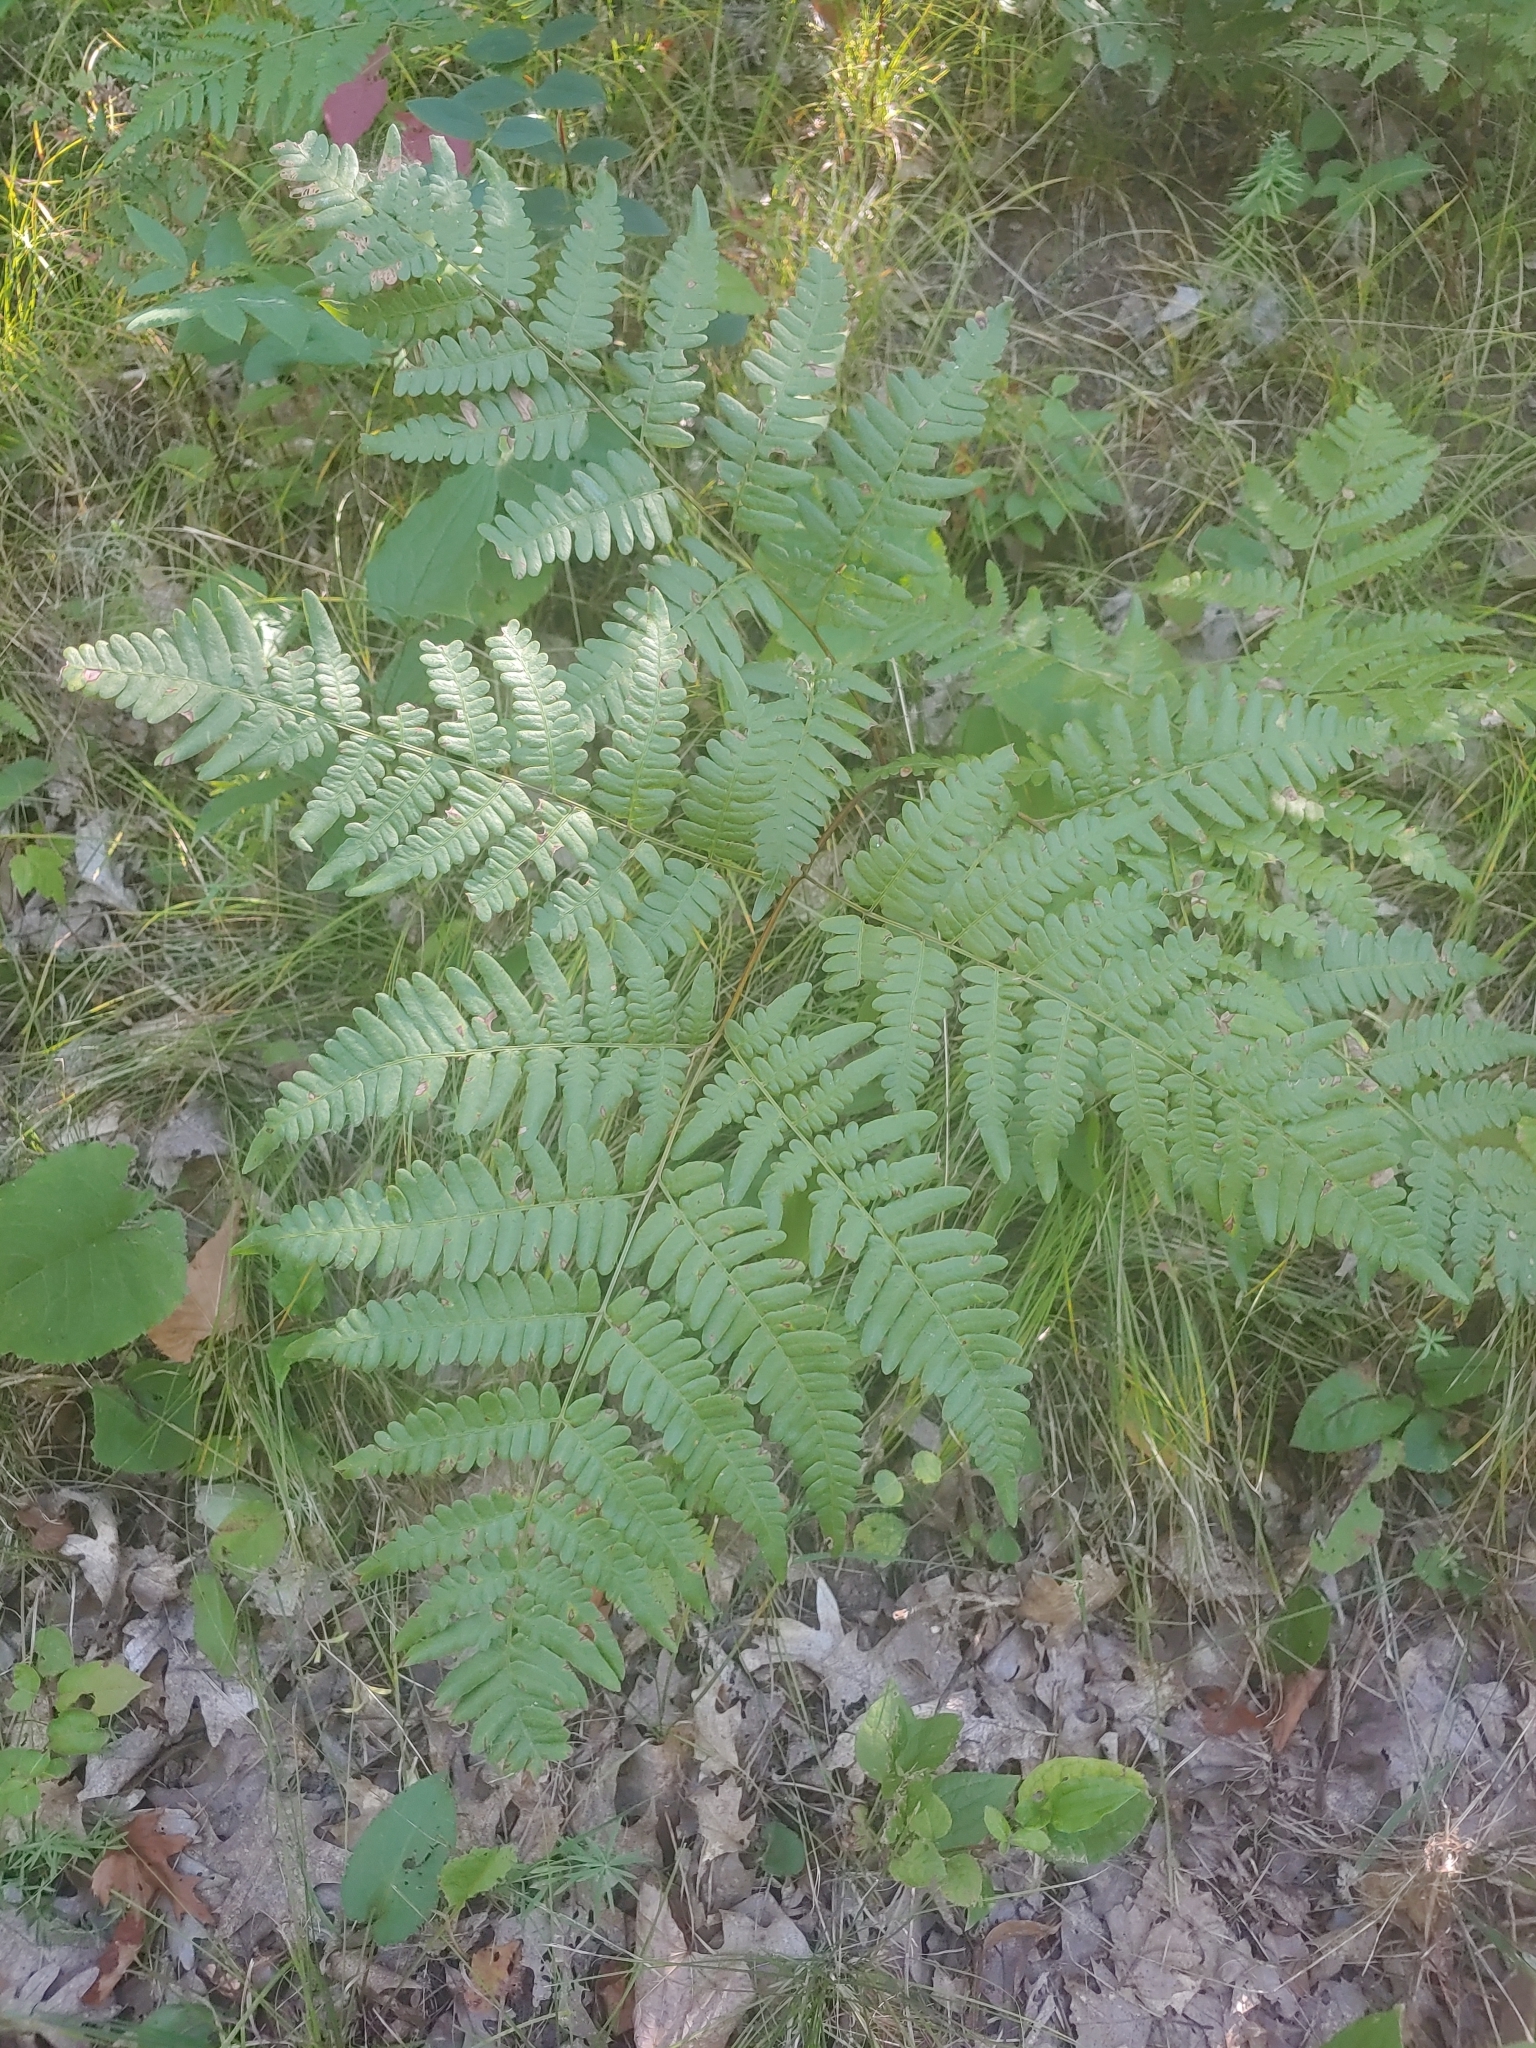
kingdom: Plantae
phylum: Tracheophyta
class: Polypodiopsida
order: Polypodiales
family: Dennstaedtiaceae
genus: Pteridium
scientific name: Pteridium aquilinum
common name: Bracken
